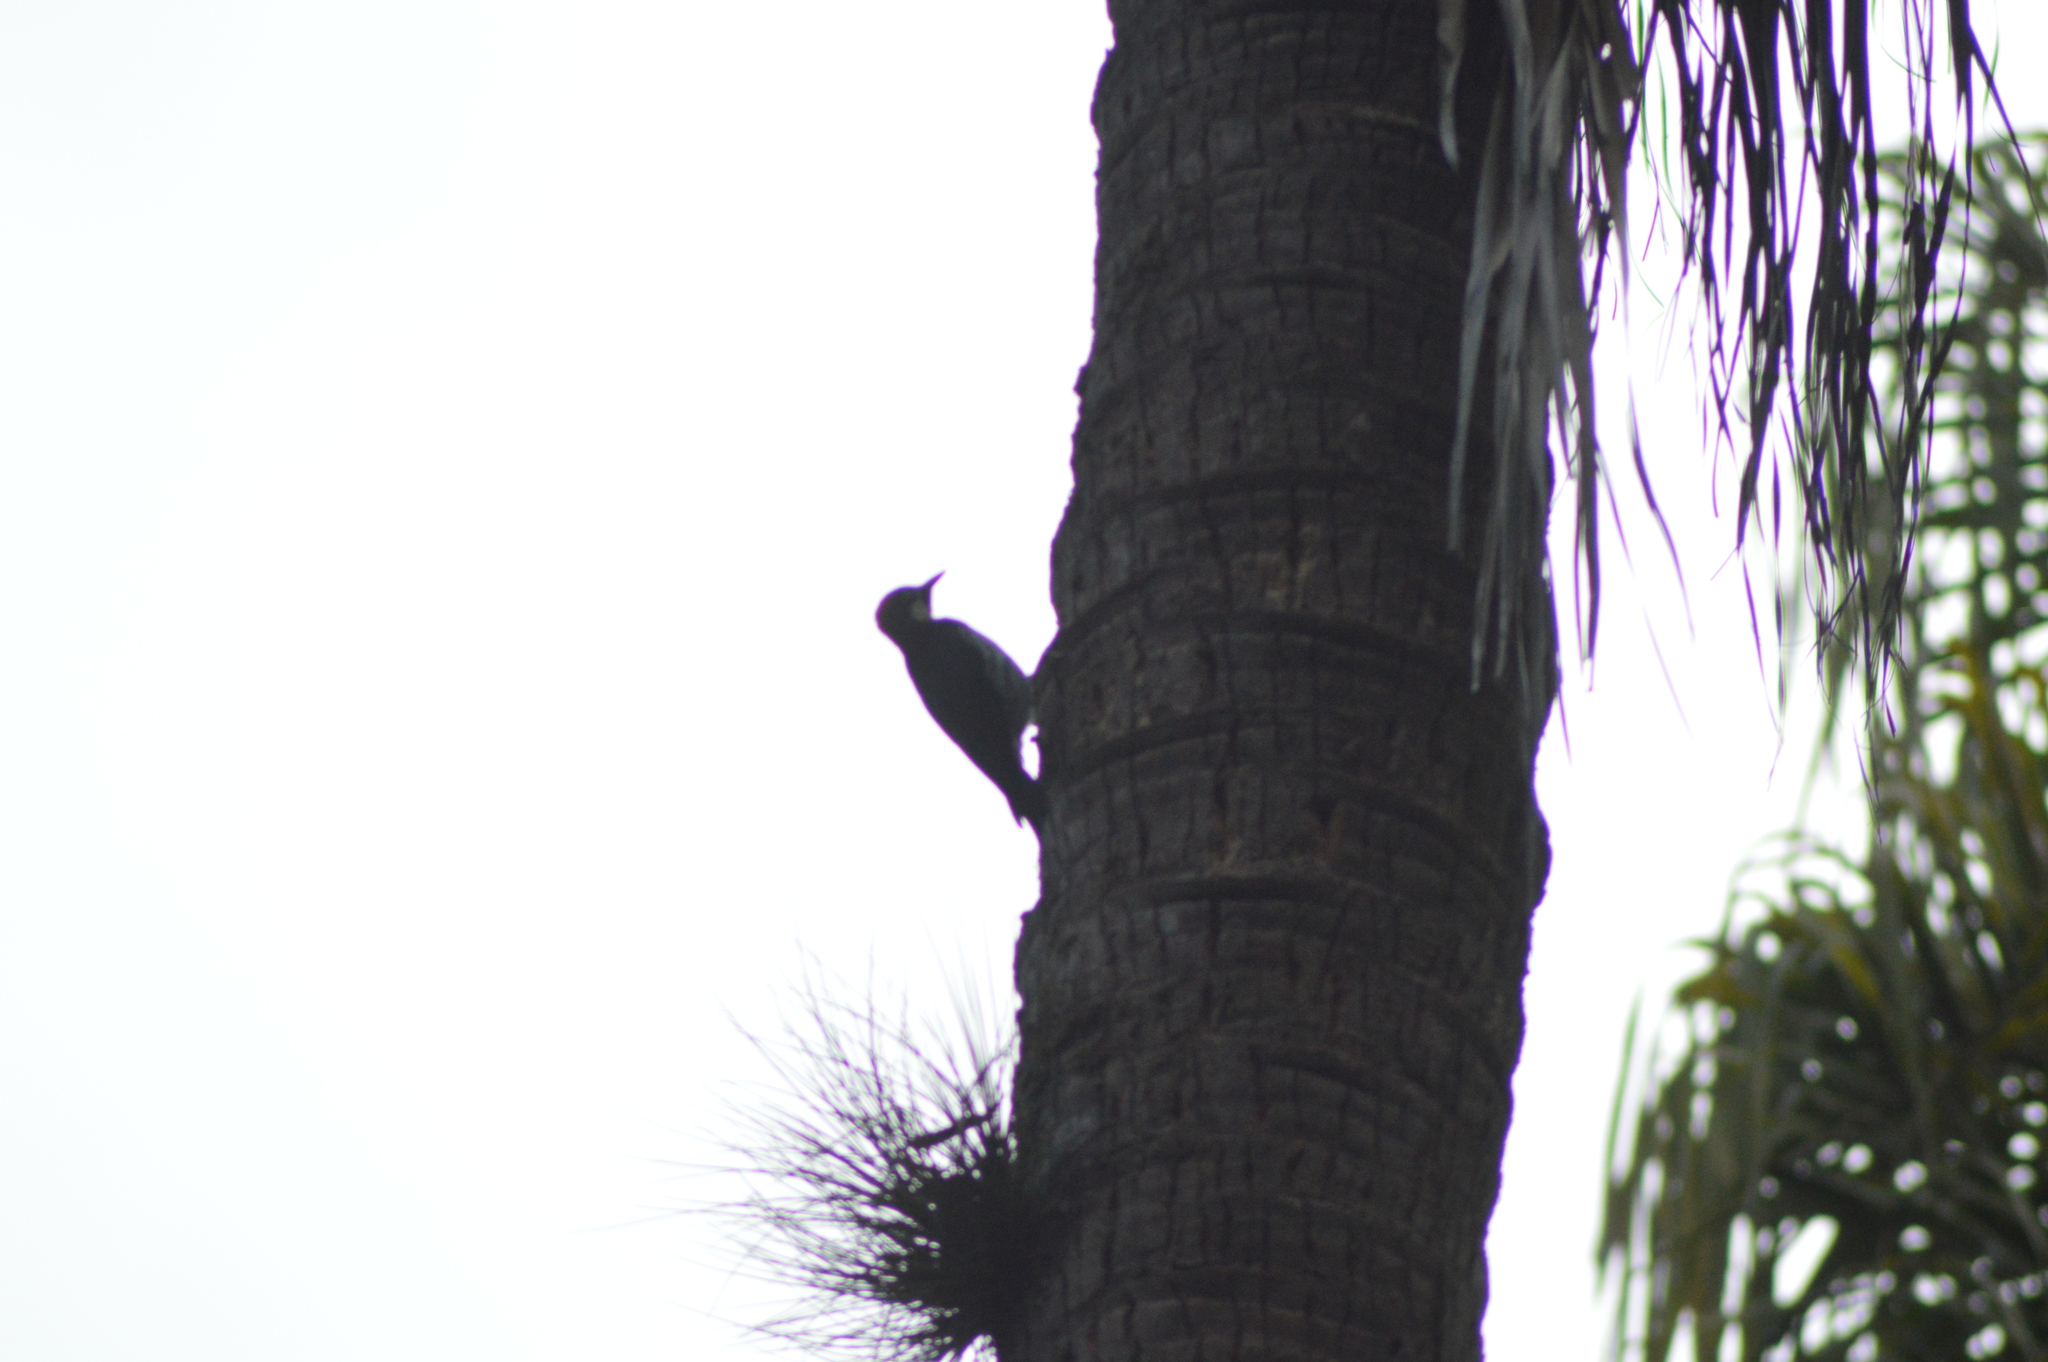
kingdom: Animalia
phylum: Chordata
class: Aves
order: Piciformes
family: Picidae
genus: Melanerpes
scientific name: Melanerpes formicivorus
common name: Acorn woodpecker
